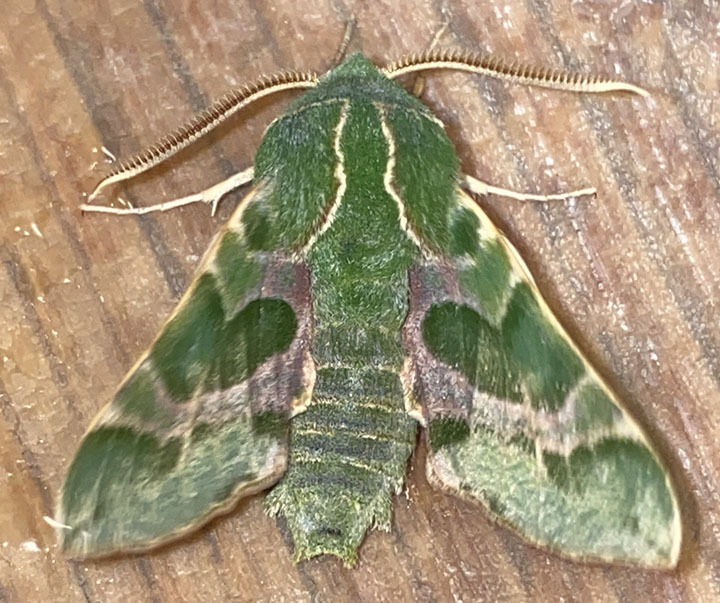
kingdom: Animalia
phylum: Arthropoda
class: Insecta
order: Lepidoptera
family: Sphingidae
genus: Proserpinus
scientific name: Proserpinus lucidus
